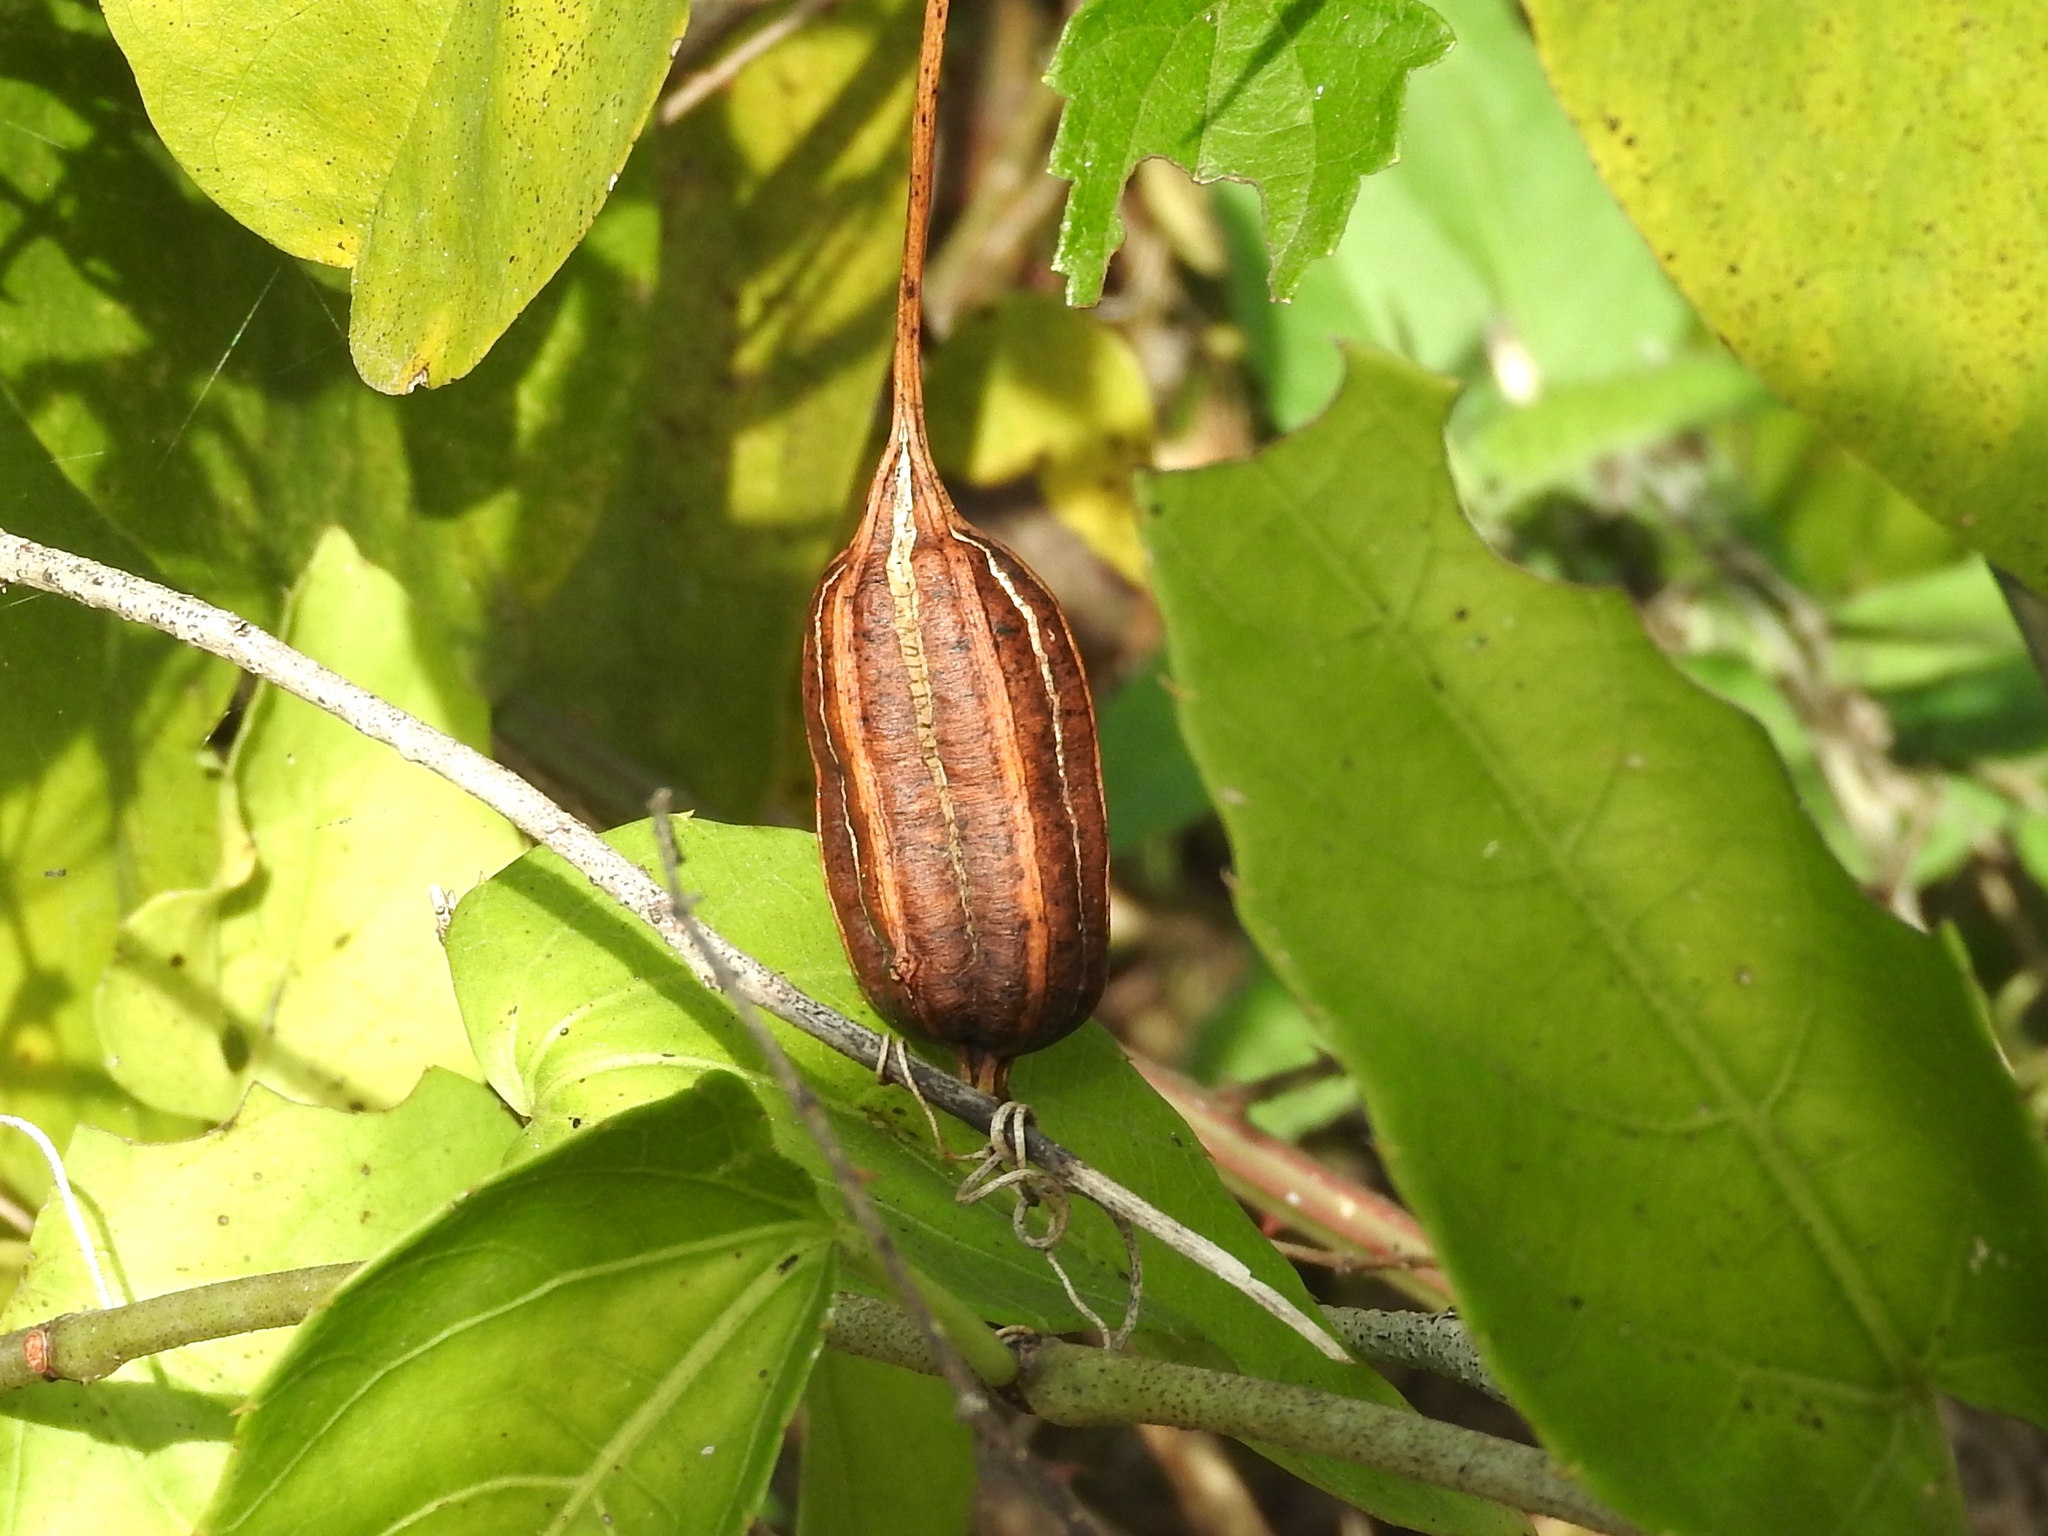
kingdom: Plantae
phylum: Tracheophyta
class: Magnoliopsida
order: Piperales
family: Aristolochiaceae
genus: Aristolochia
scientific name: Aristolochia
